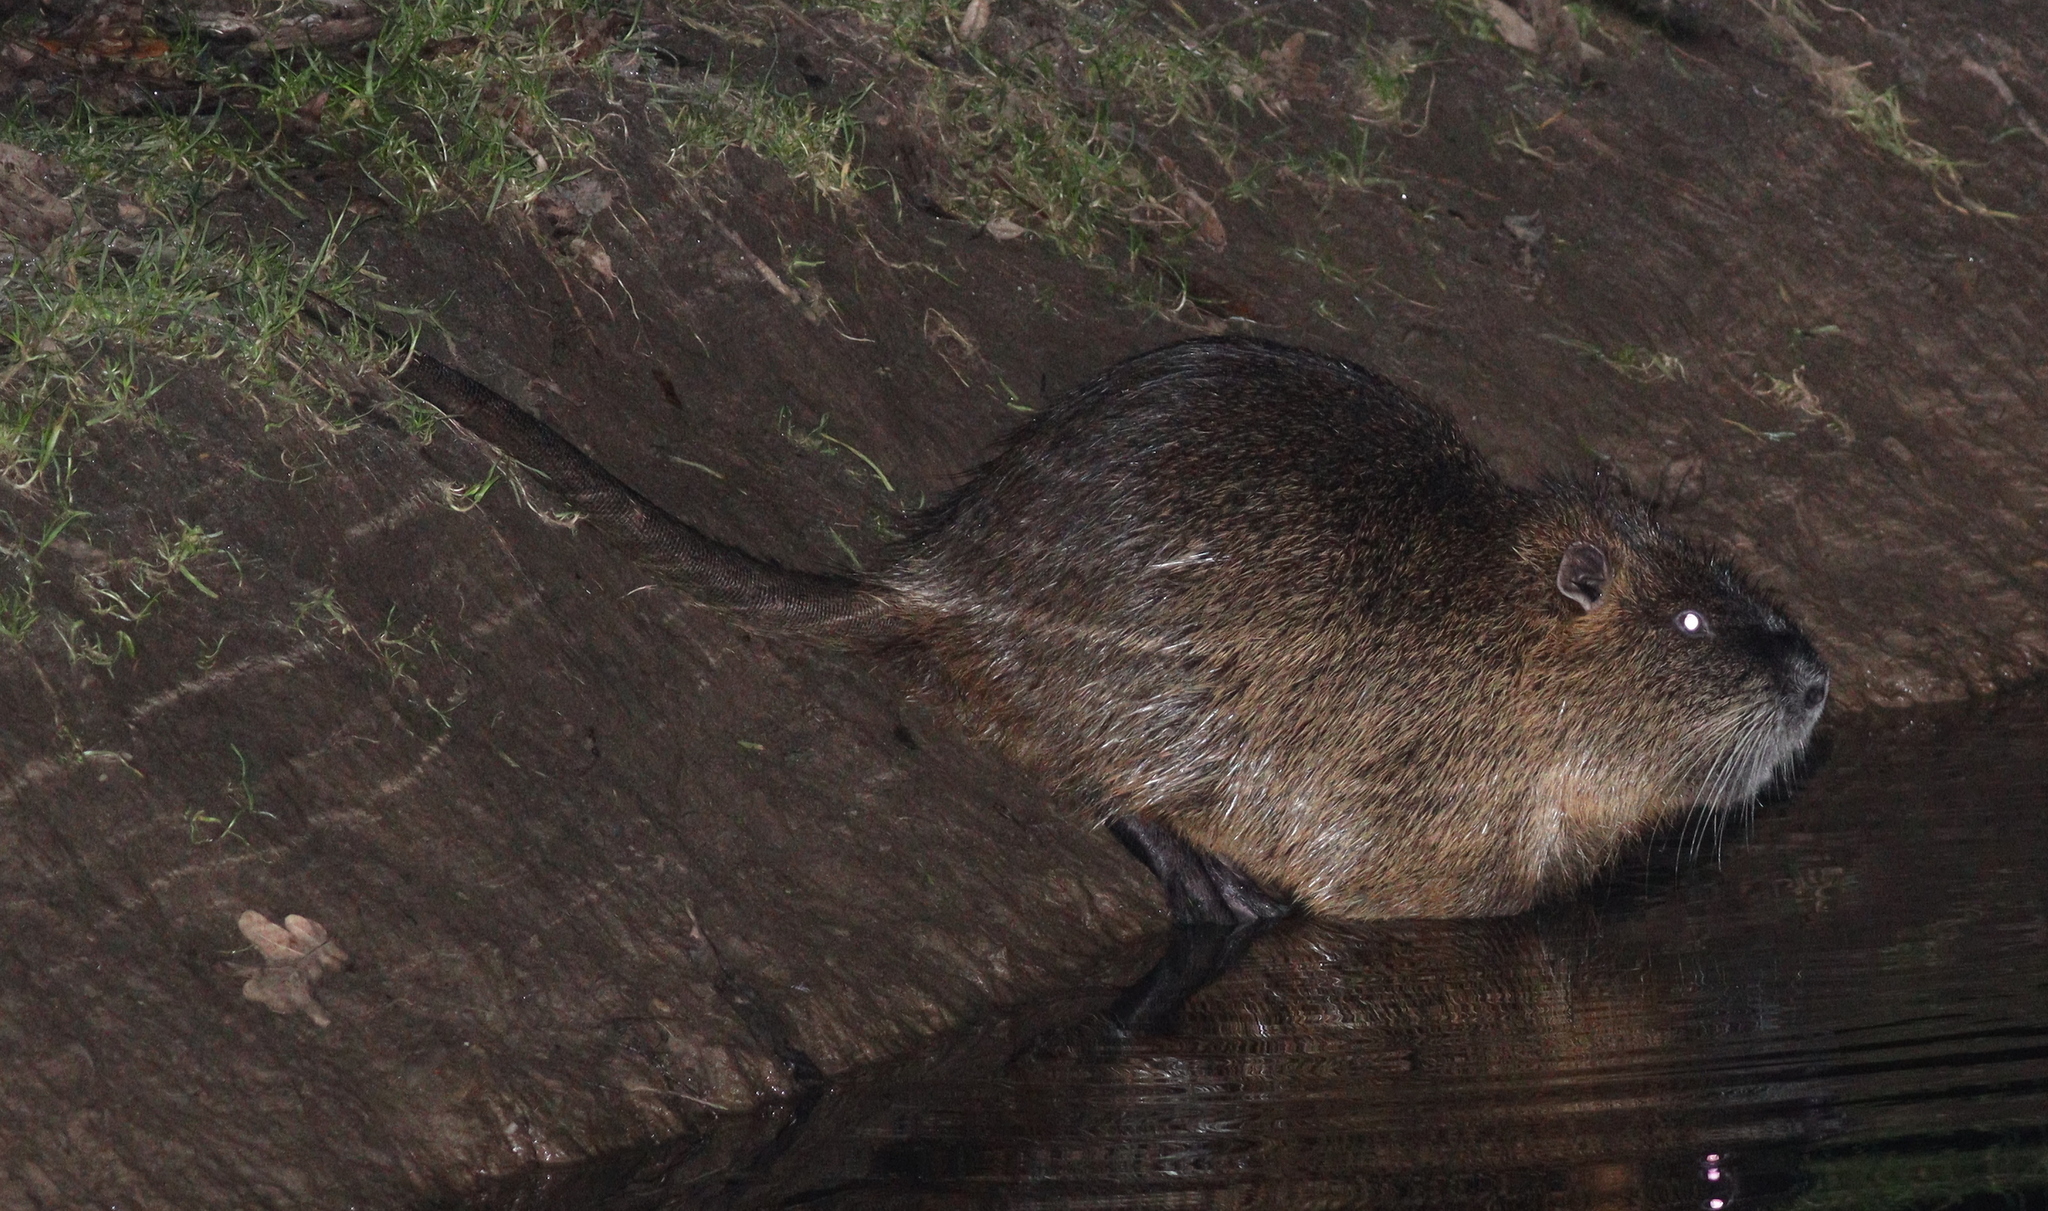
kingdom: Animalia
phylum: Chordata
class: Mammalia
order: Rodentia
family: Myocastoridae
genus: Myocastor
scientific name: Myocastor coypus
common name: Coypu
